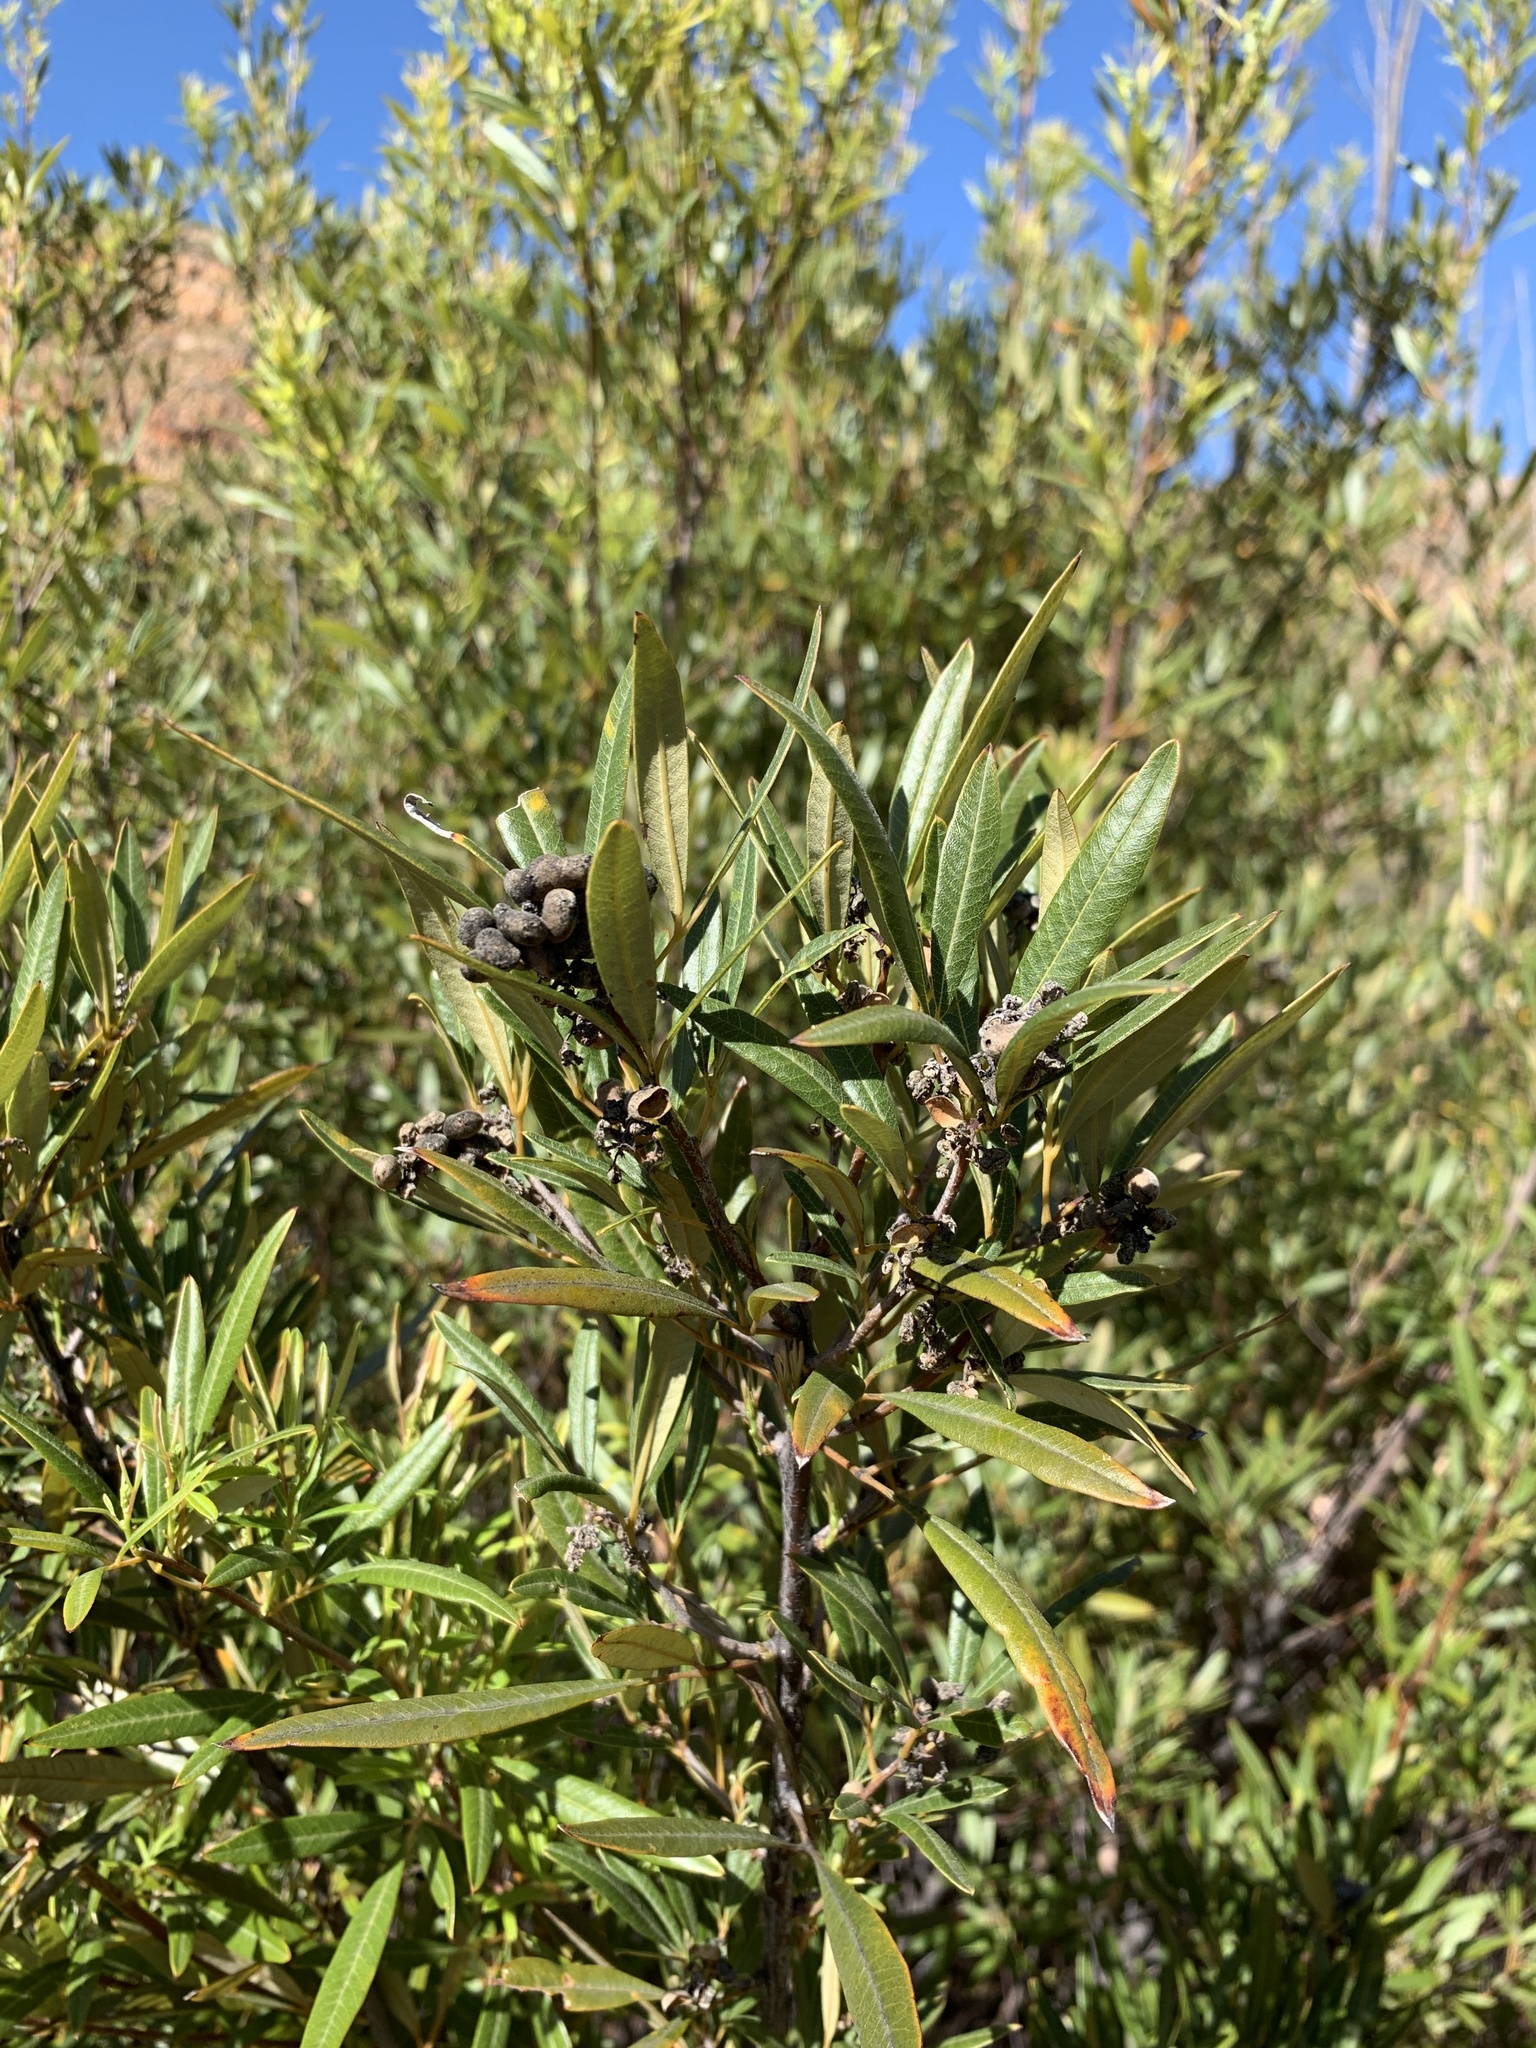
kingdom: Plantae
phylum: Tracheophyta
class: Magnoliopsida
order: Sapindales
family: Anacardiaceae
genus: Searsia
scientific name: Searsia angustifolia
